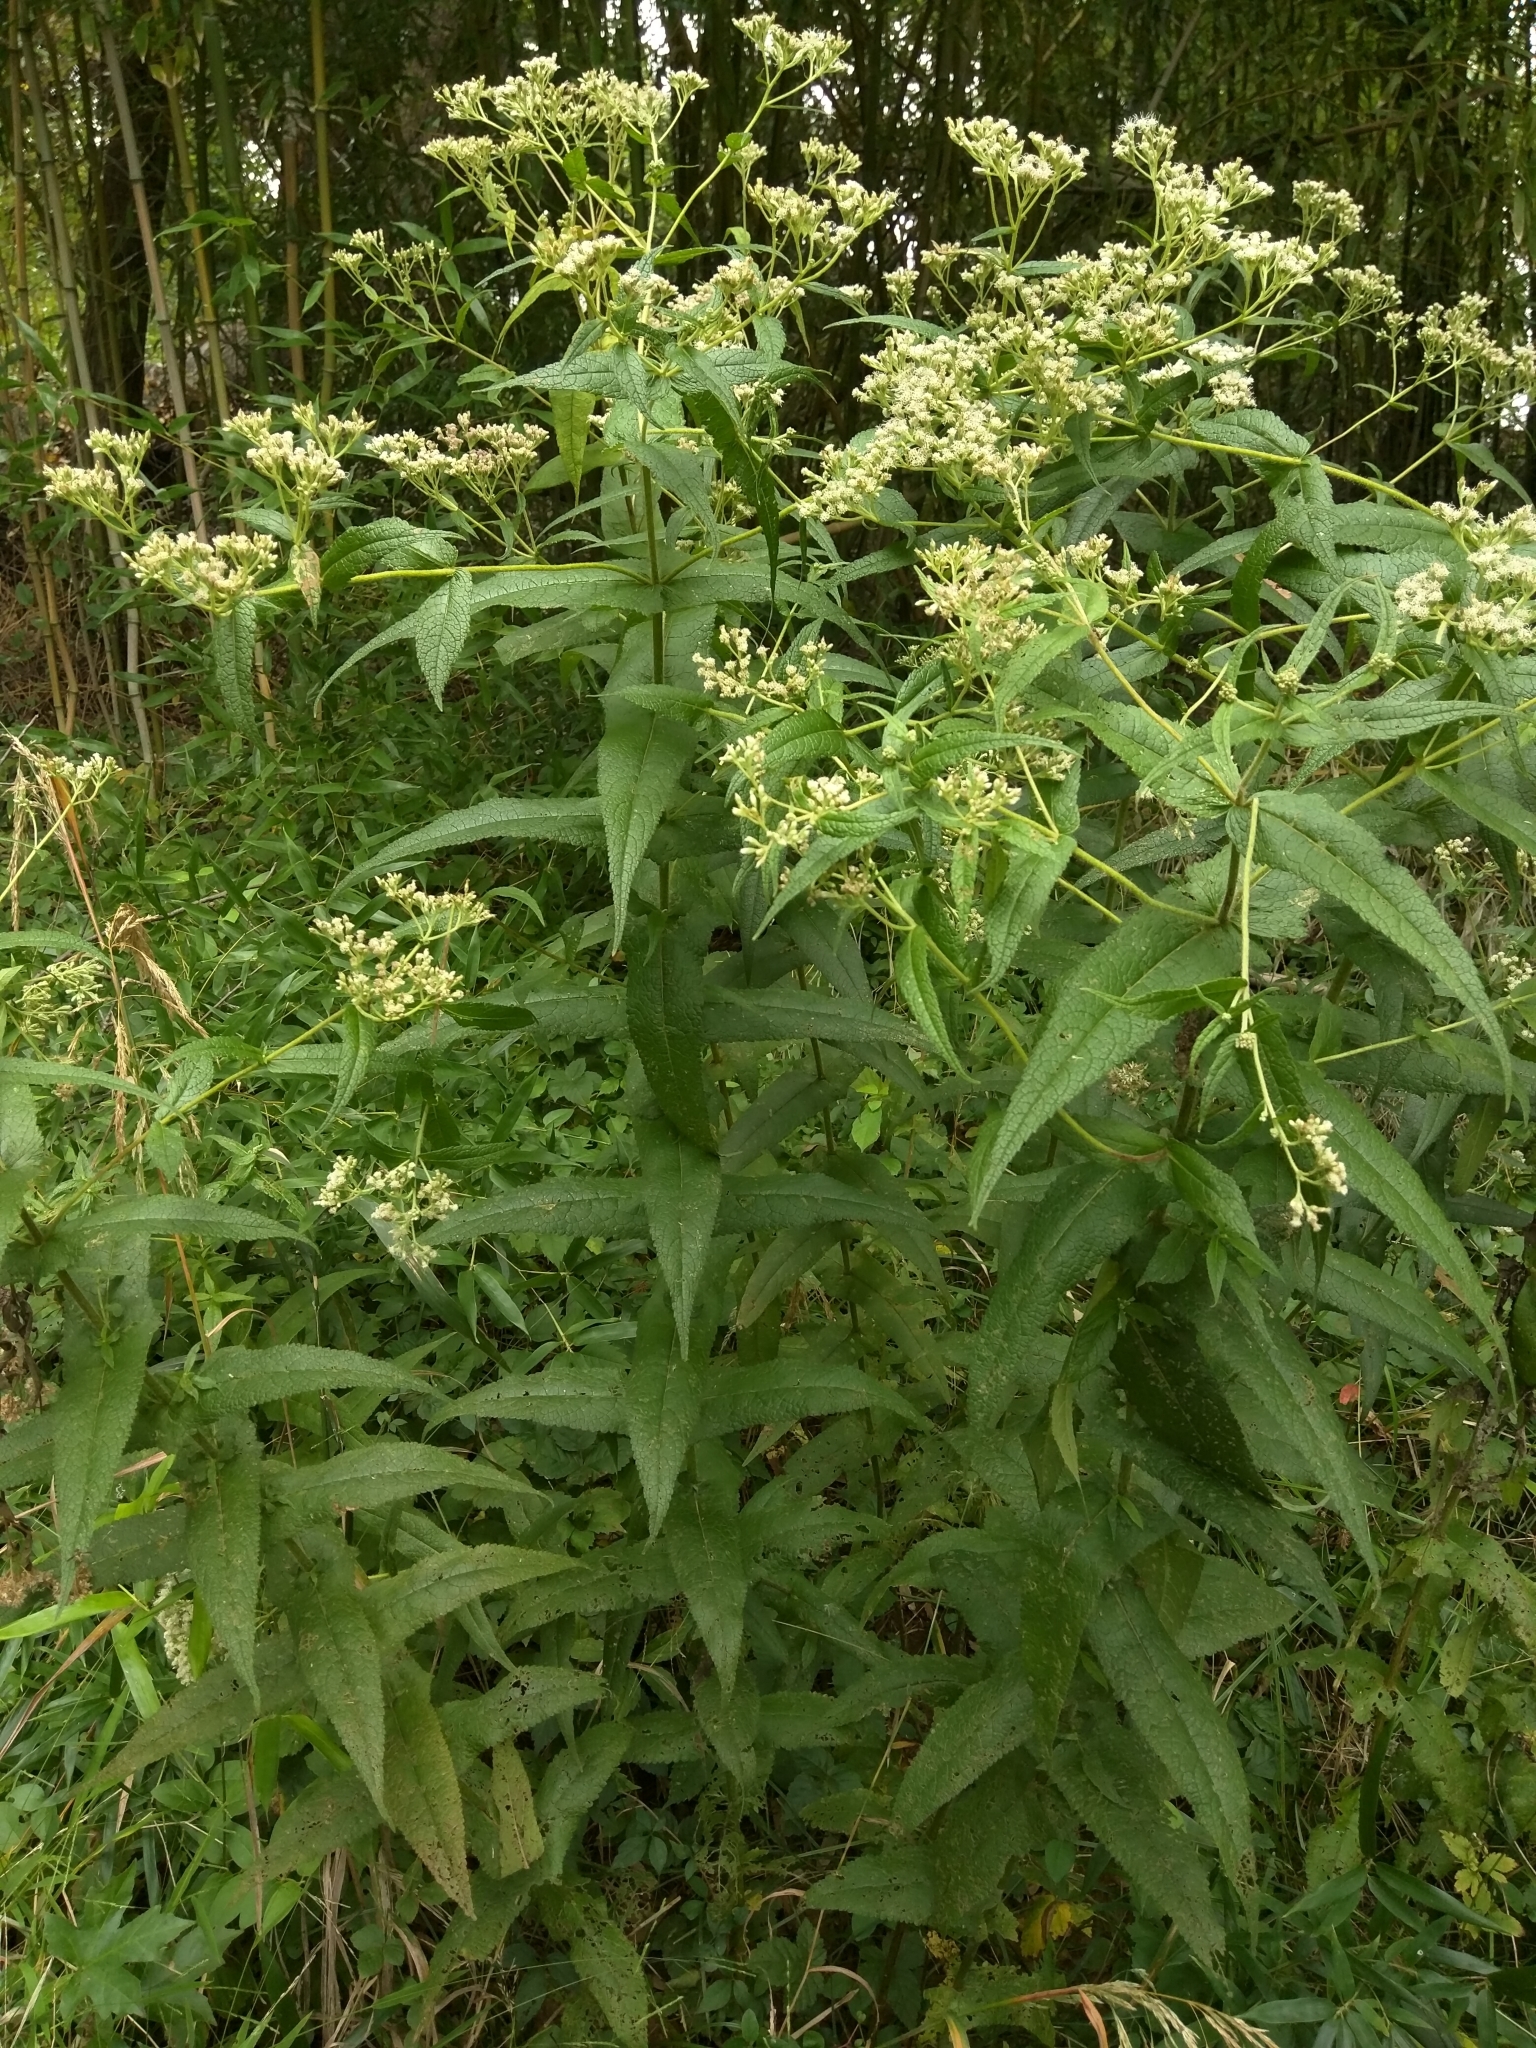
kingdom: Plantae
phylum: Tracheophyta
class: Magnoliopsida
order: Asterales
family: Asteraceae
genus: Eupatorium
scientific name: Eupatorium perfoliatum
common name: Boneset
